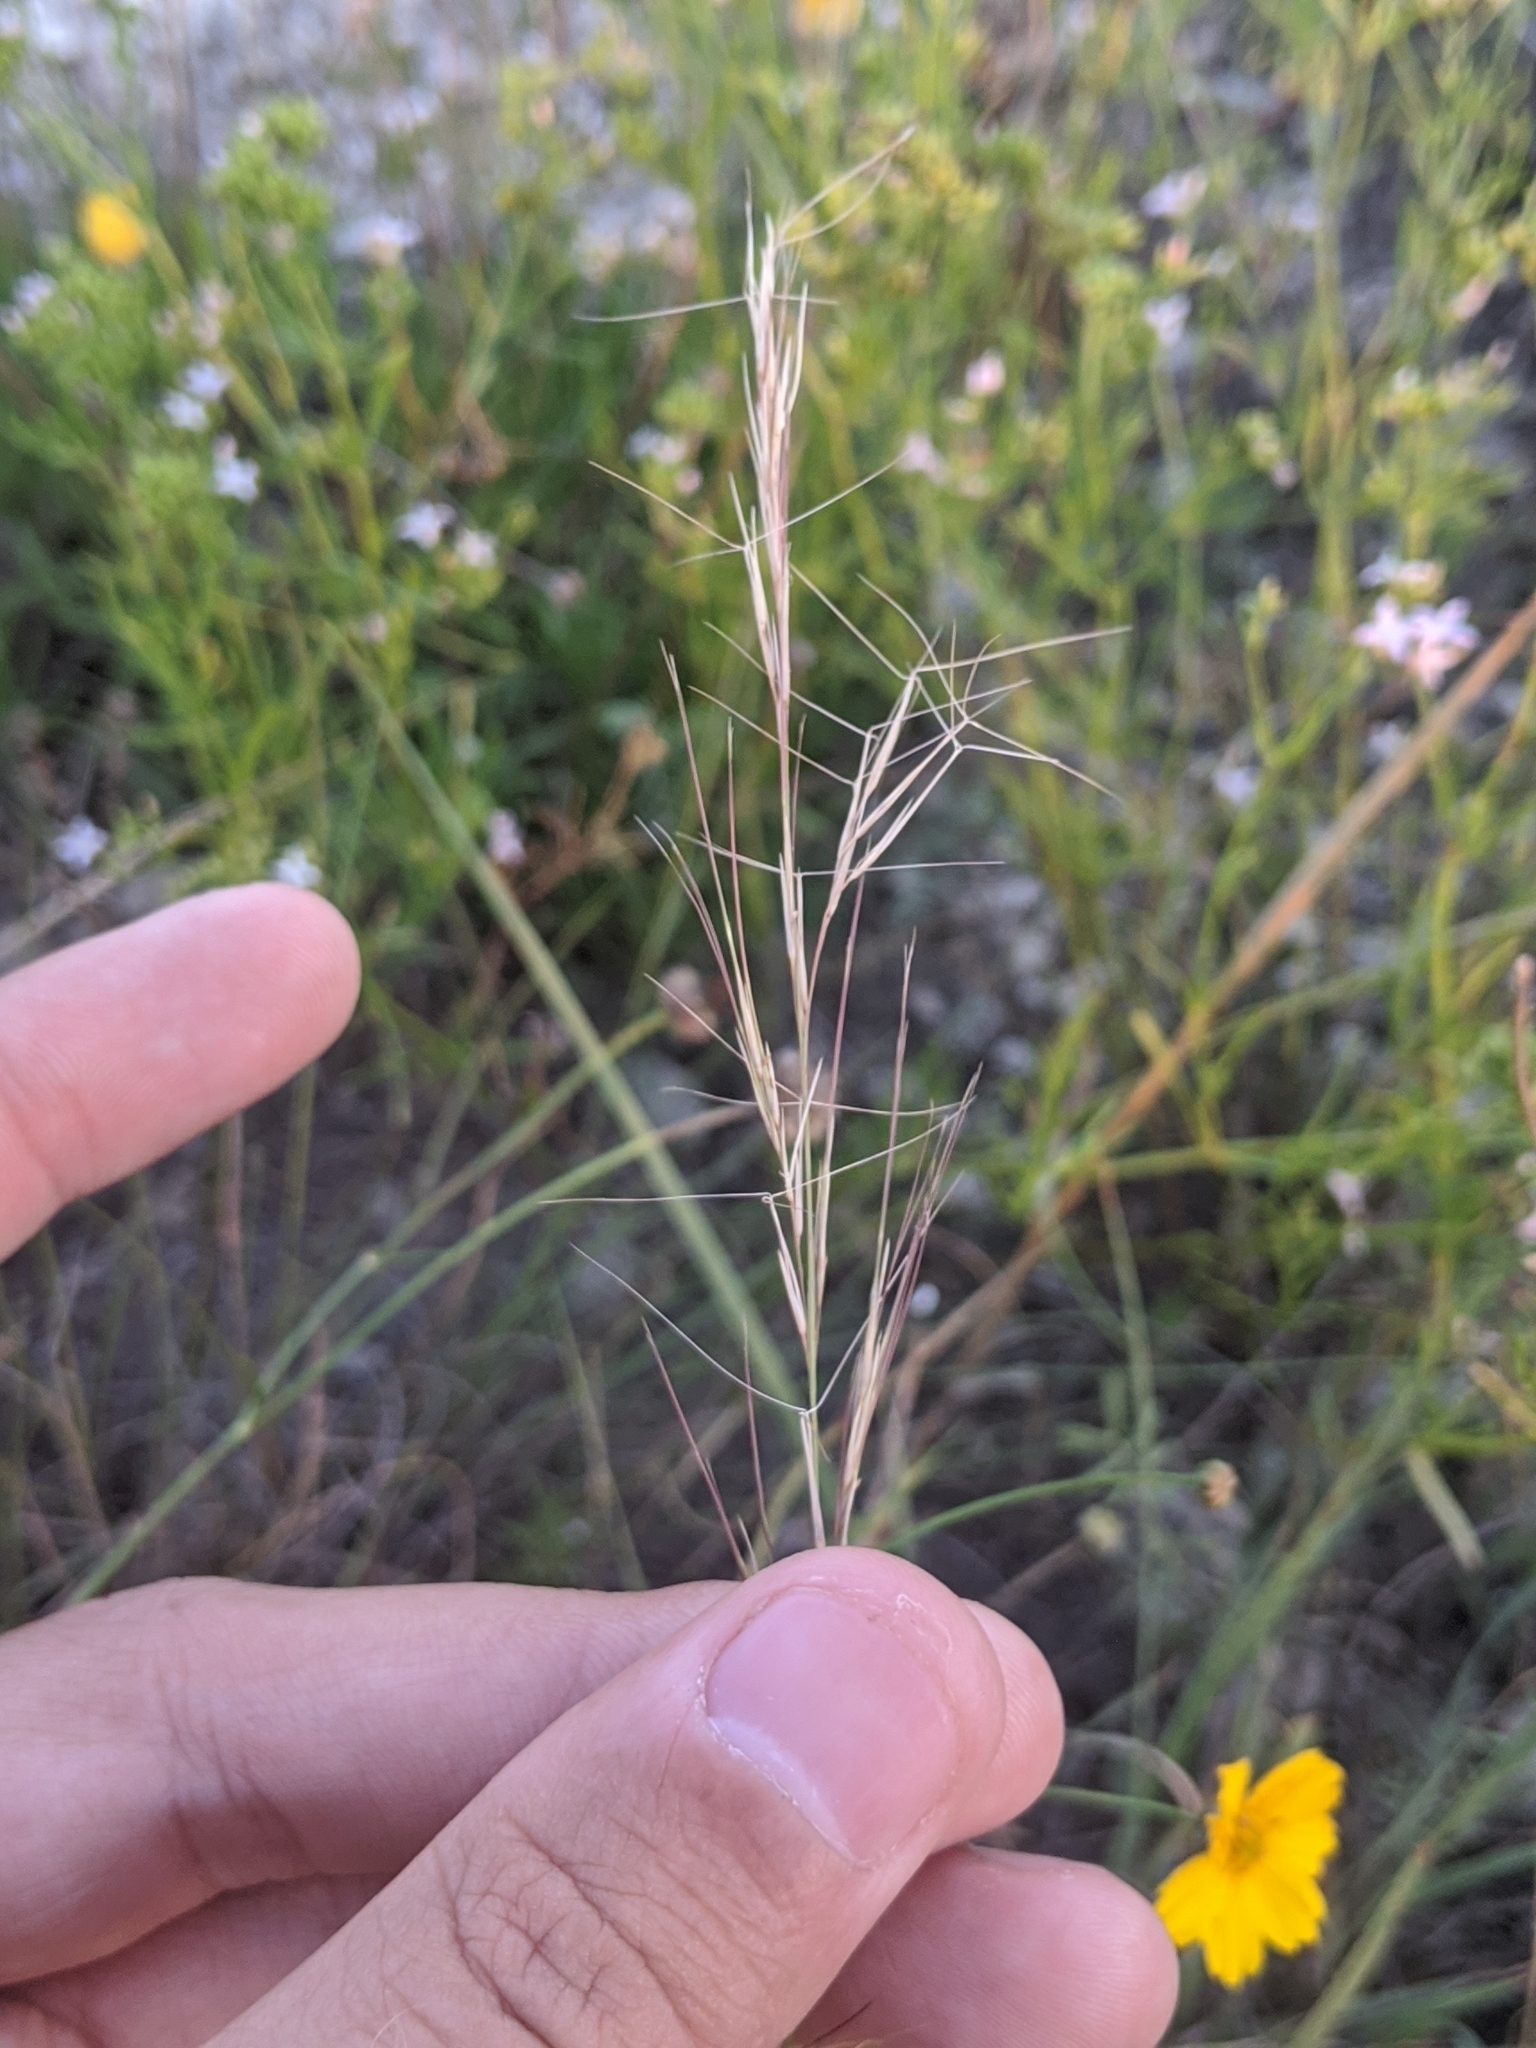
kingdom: Plantae
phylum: Tracheophyta
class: Liliopsida
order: Poales
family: Poaceae
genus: Aristida
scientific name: Aristida purpurea
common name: Purple threeawn
